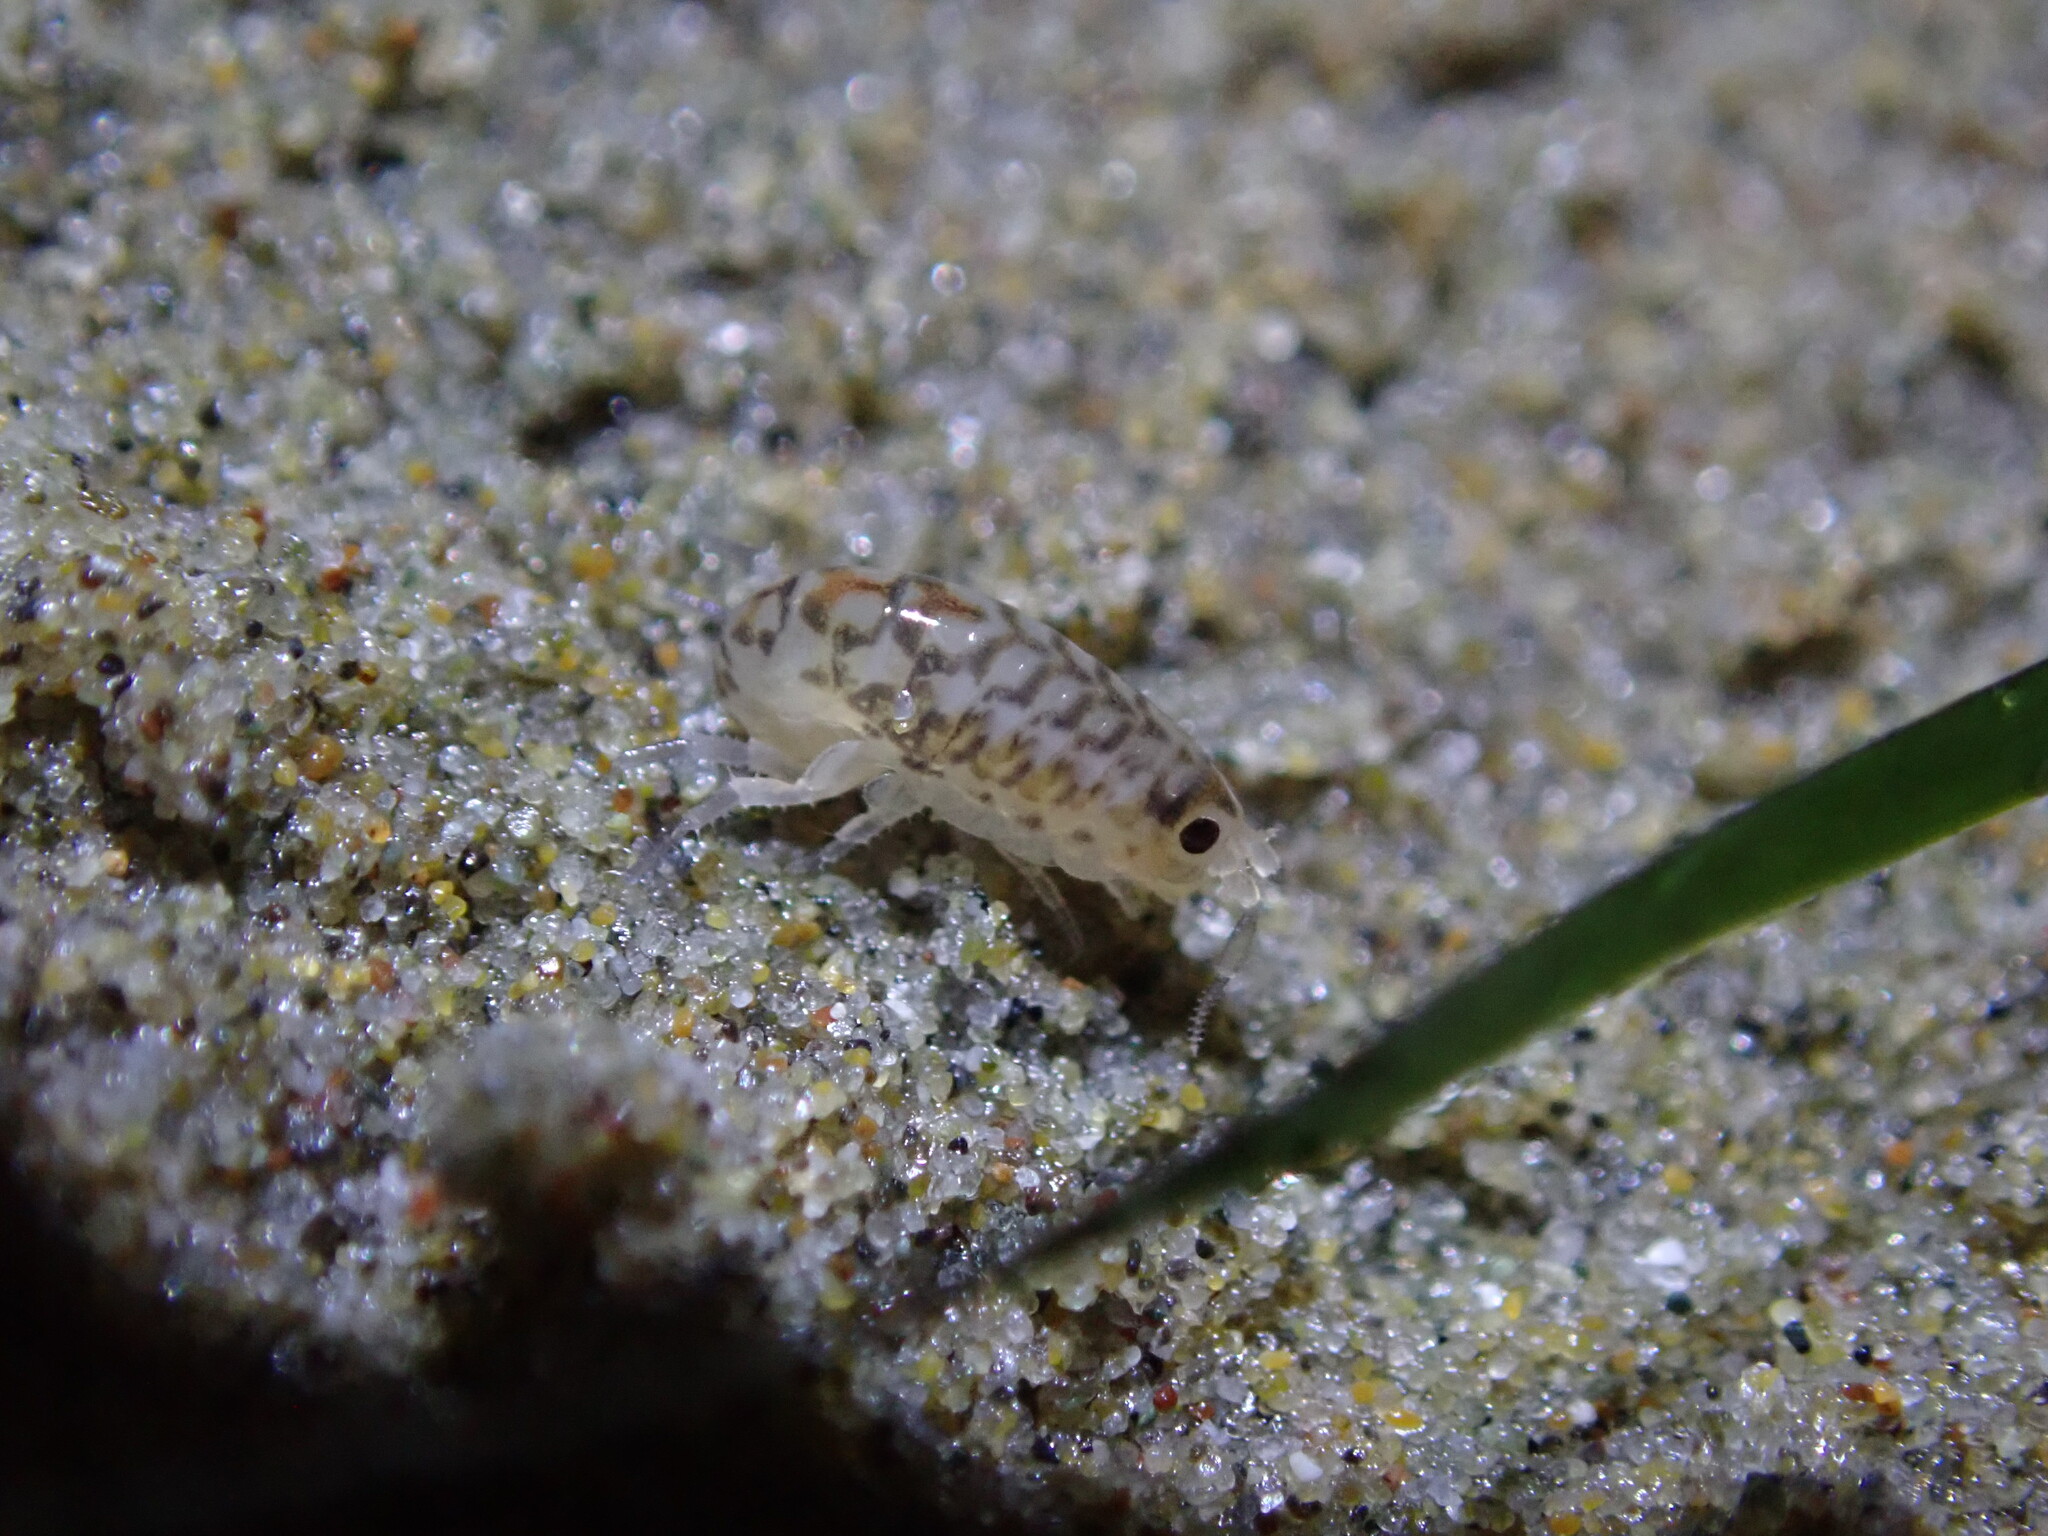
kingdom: Animalia
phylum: Arthropoda
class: Malacostraca
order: Amphipoda
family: Talitridae
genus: Megalorchestia
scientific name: Megalorchestia benedicti
